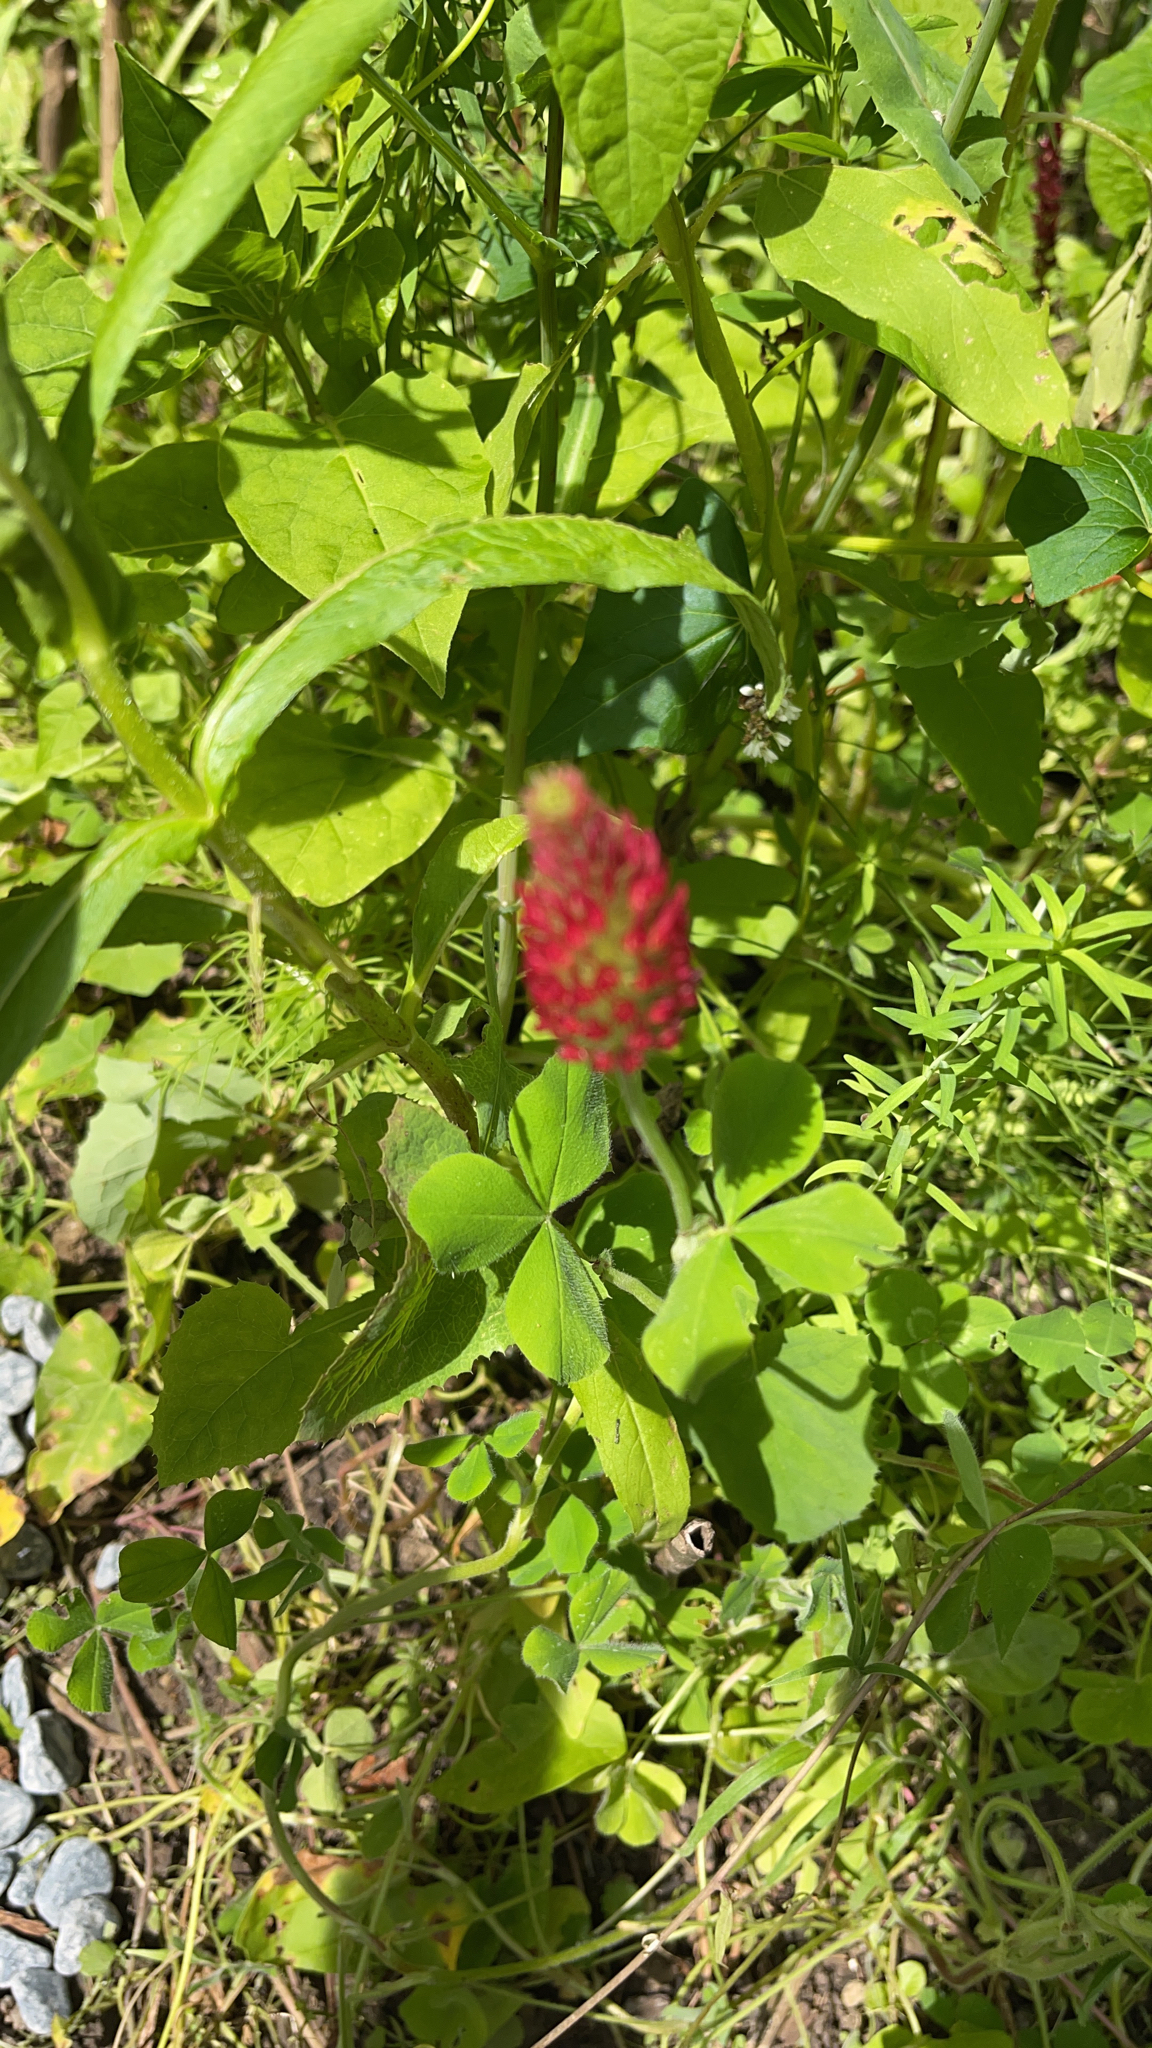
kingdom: Plantae
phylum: Tracheophyta
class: Magnoliopsida
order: Fabales
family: Fabaceae
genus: Trifolium
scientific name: Trifolium incarnatum
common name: Crimson clover
